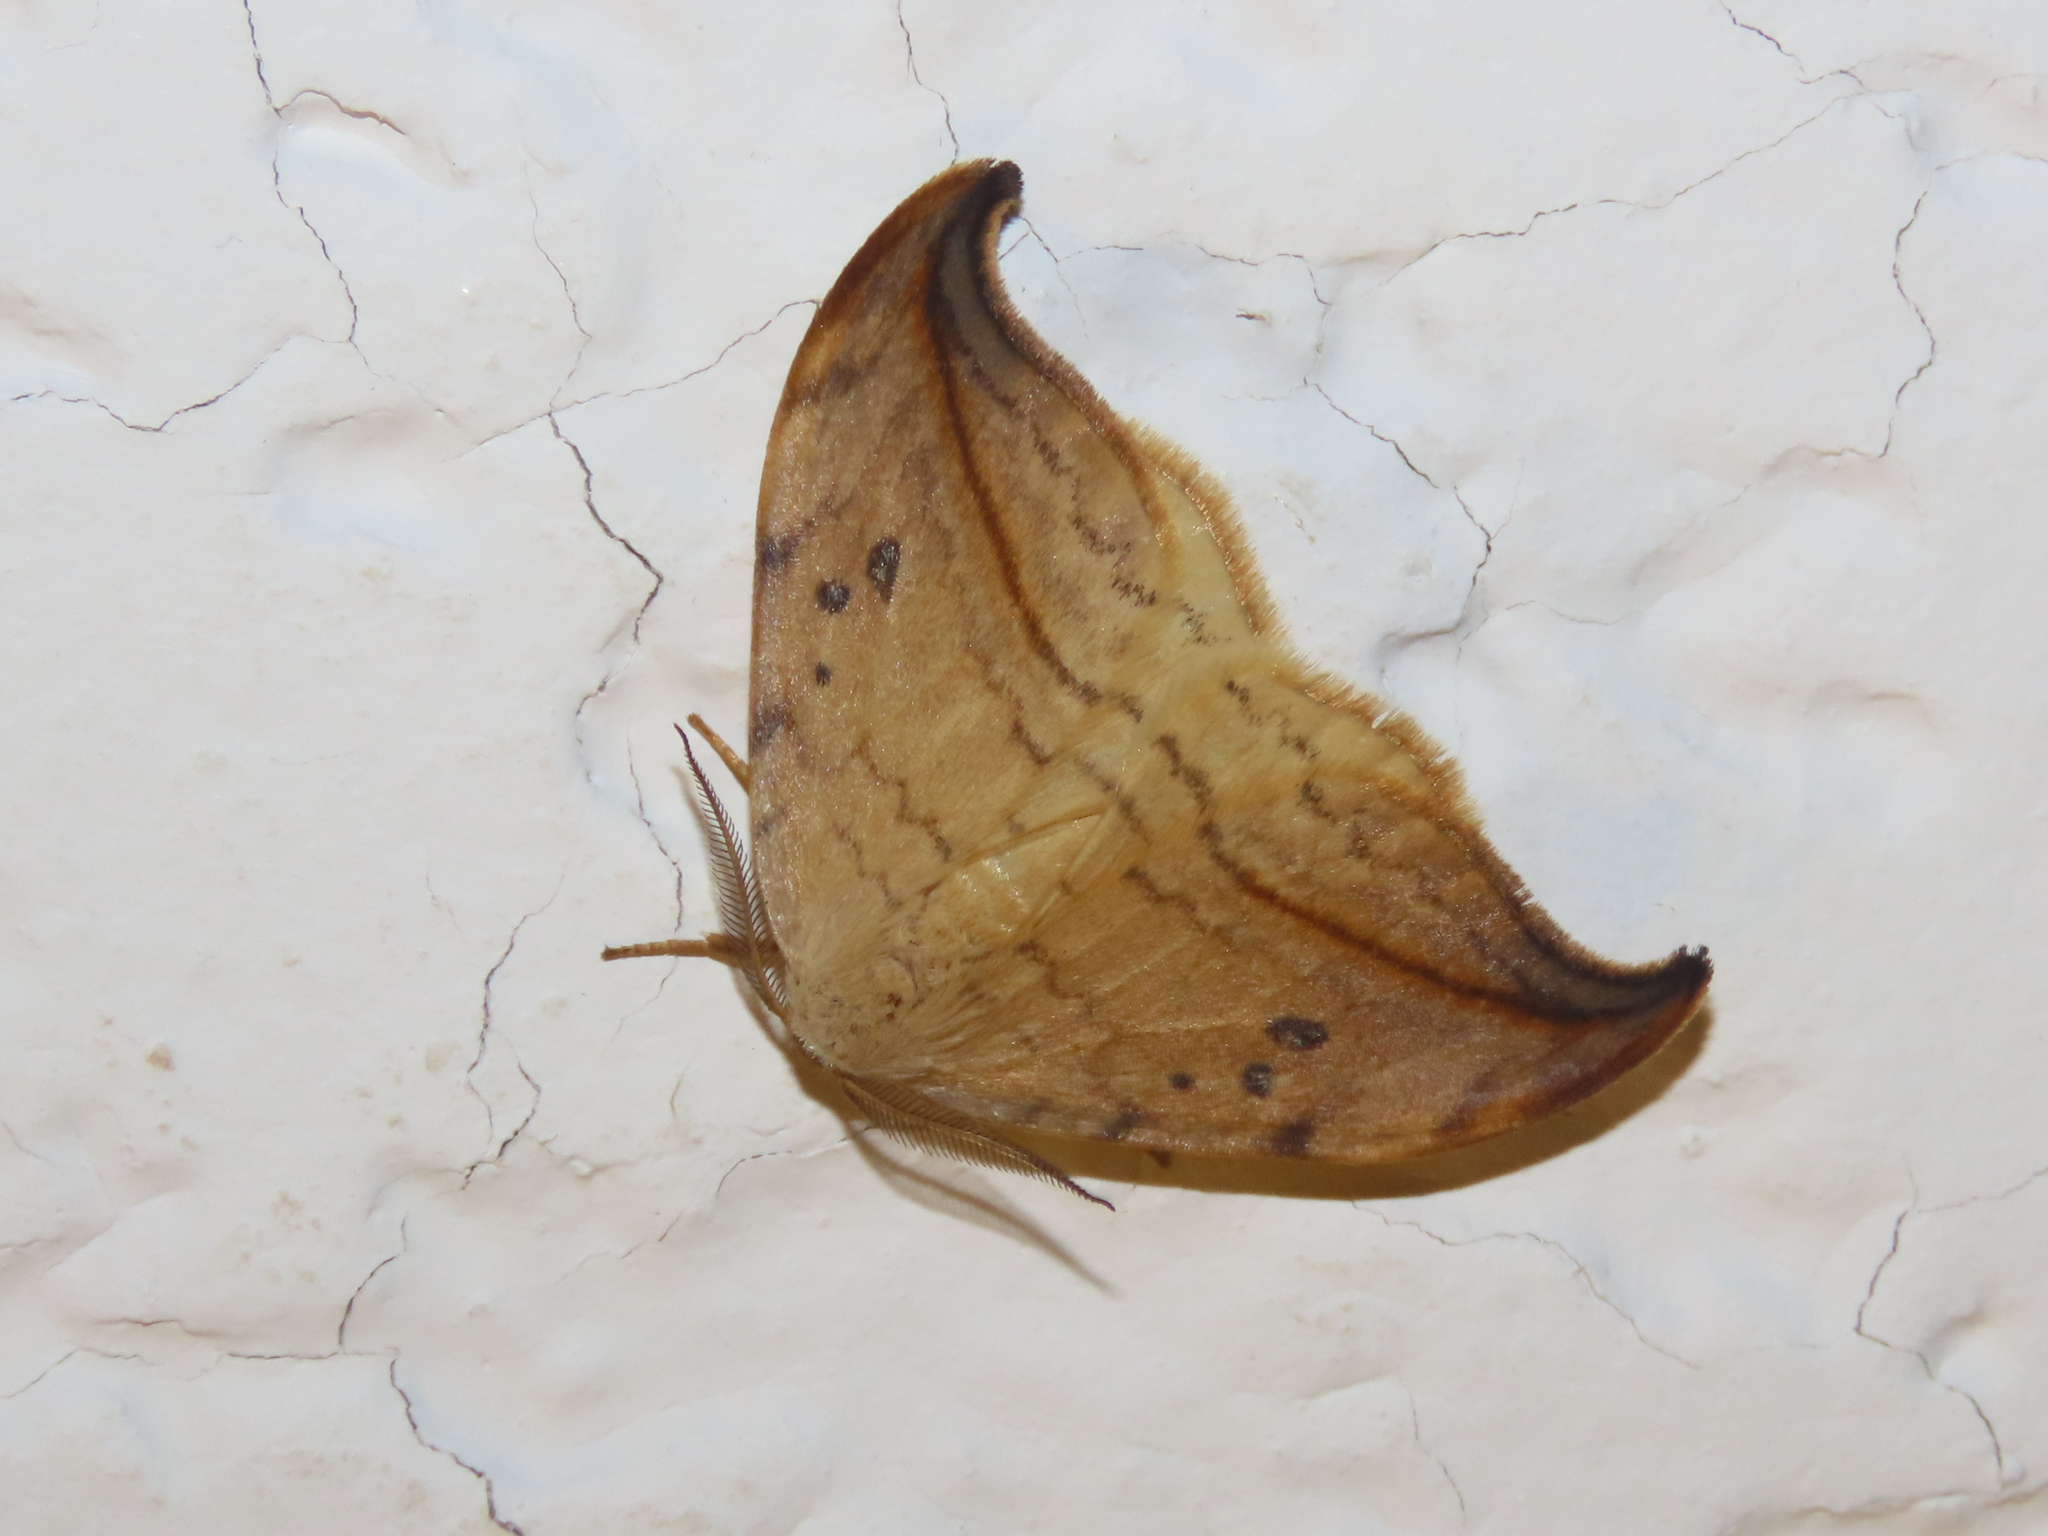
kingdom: Animalia
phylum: Arthropoda
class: Insecta
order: Lepidoptera
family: Drepanidae
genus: Drepana
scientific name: Drepana arcuata
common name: Arched hooktip moth
